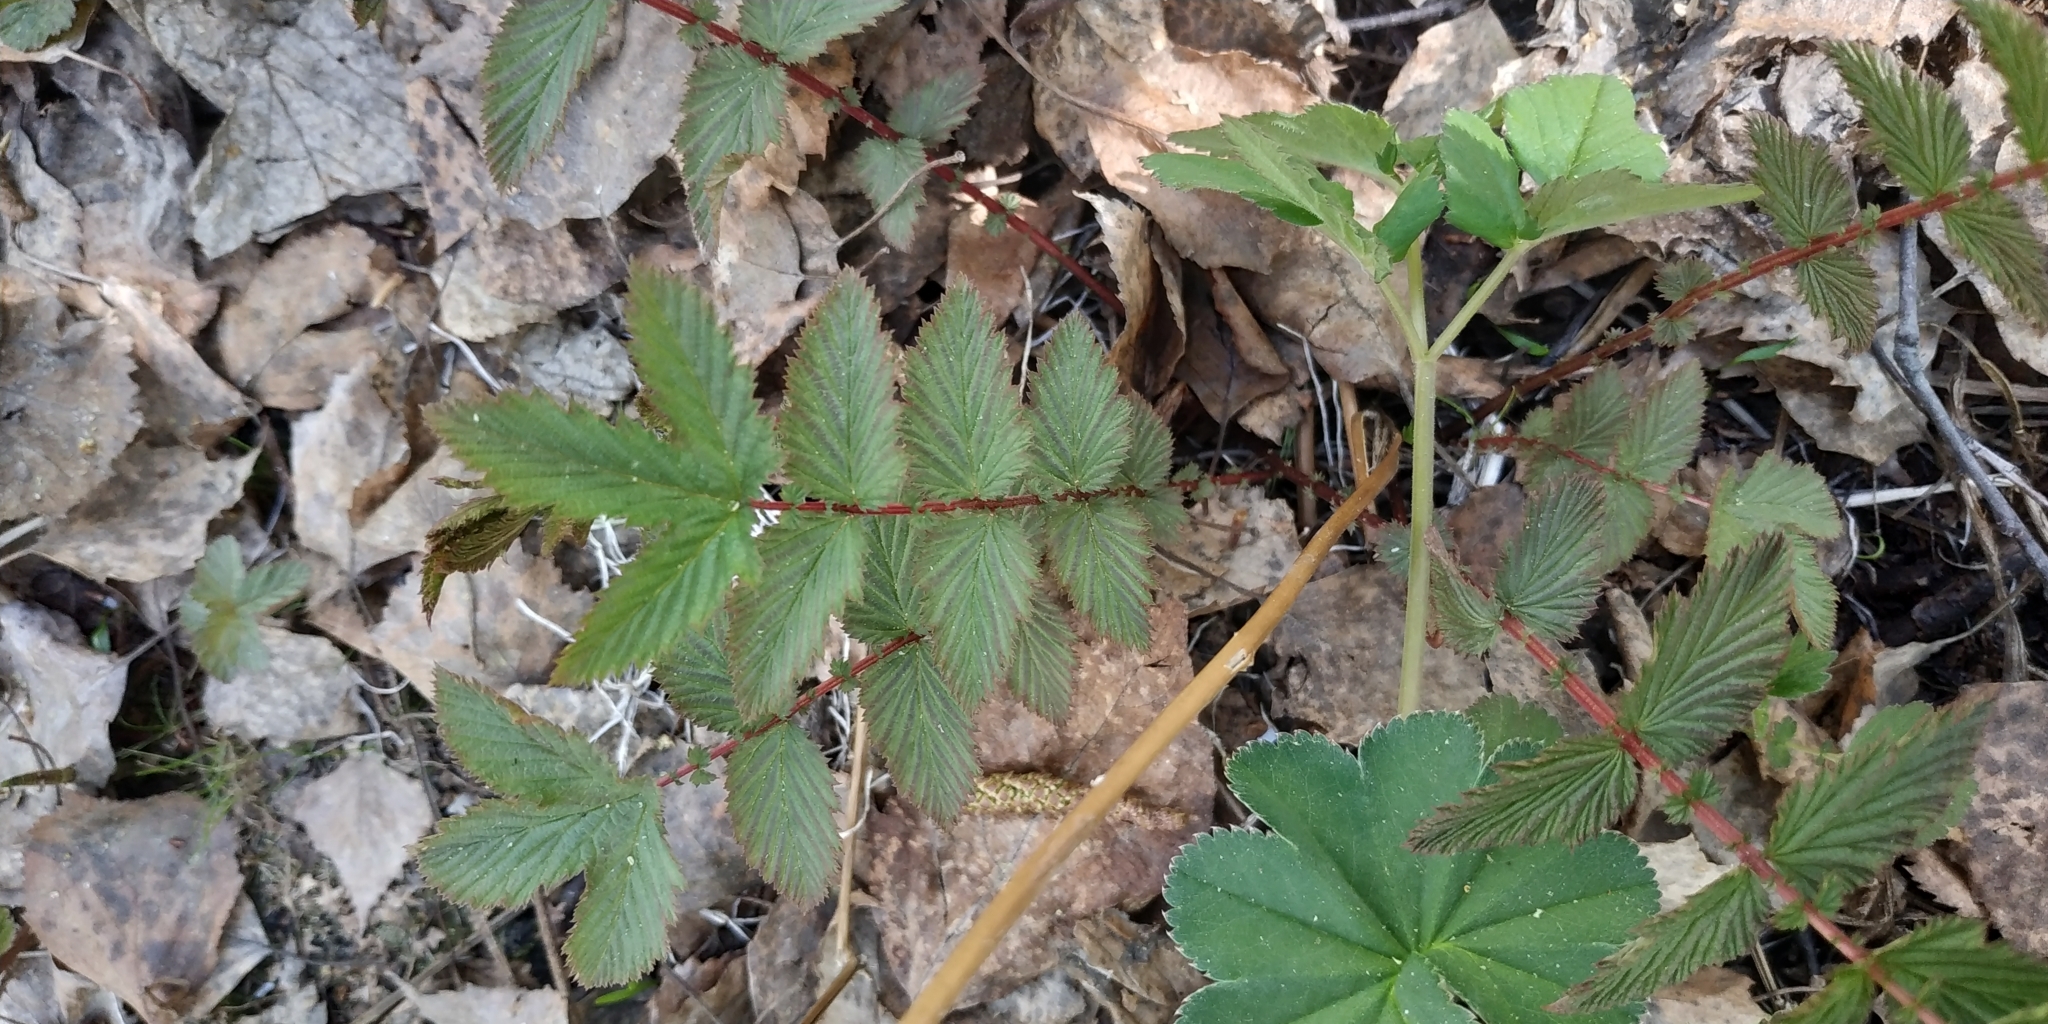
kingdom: Plantae
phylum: Tracheophyta
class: Magnoliopsida
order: Rosales
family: Rosaceae
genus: Filipendula
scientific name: Filipendula ulmaria
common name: Meadowsweet
